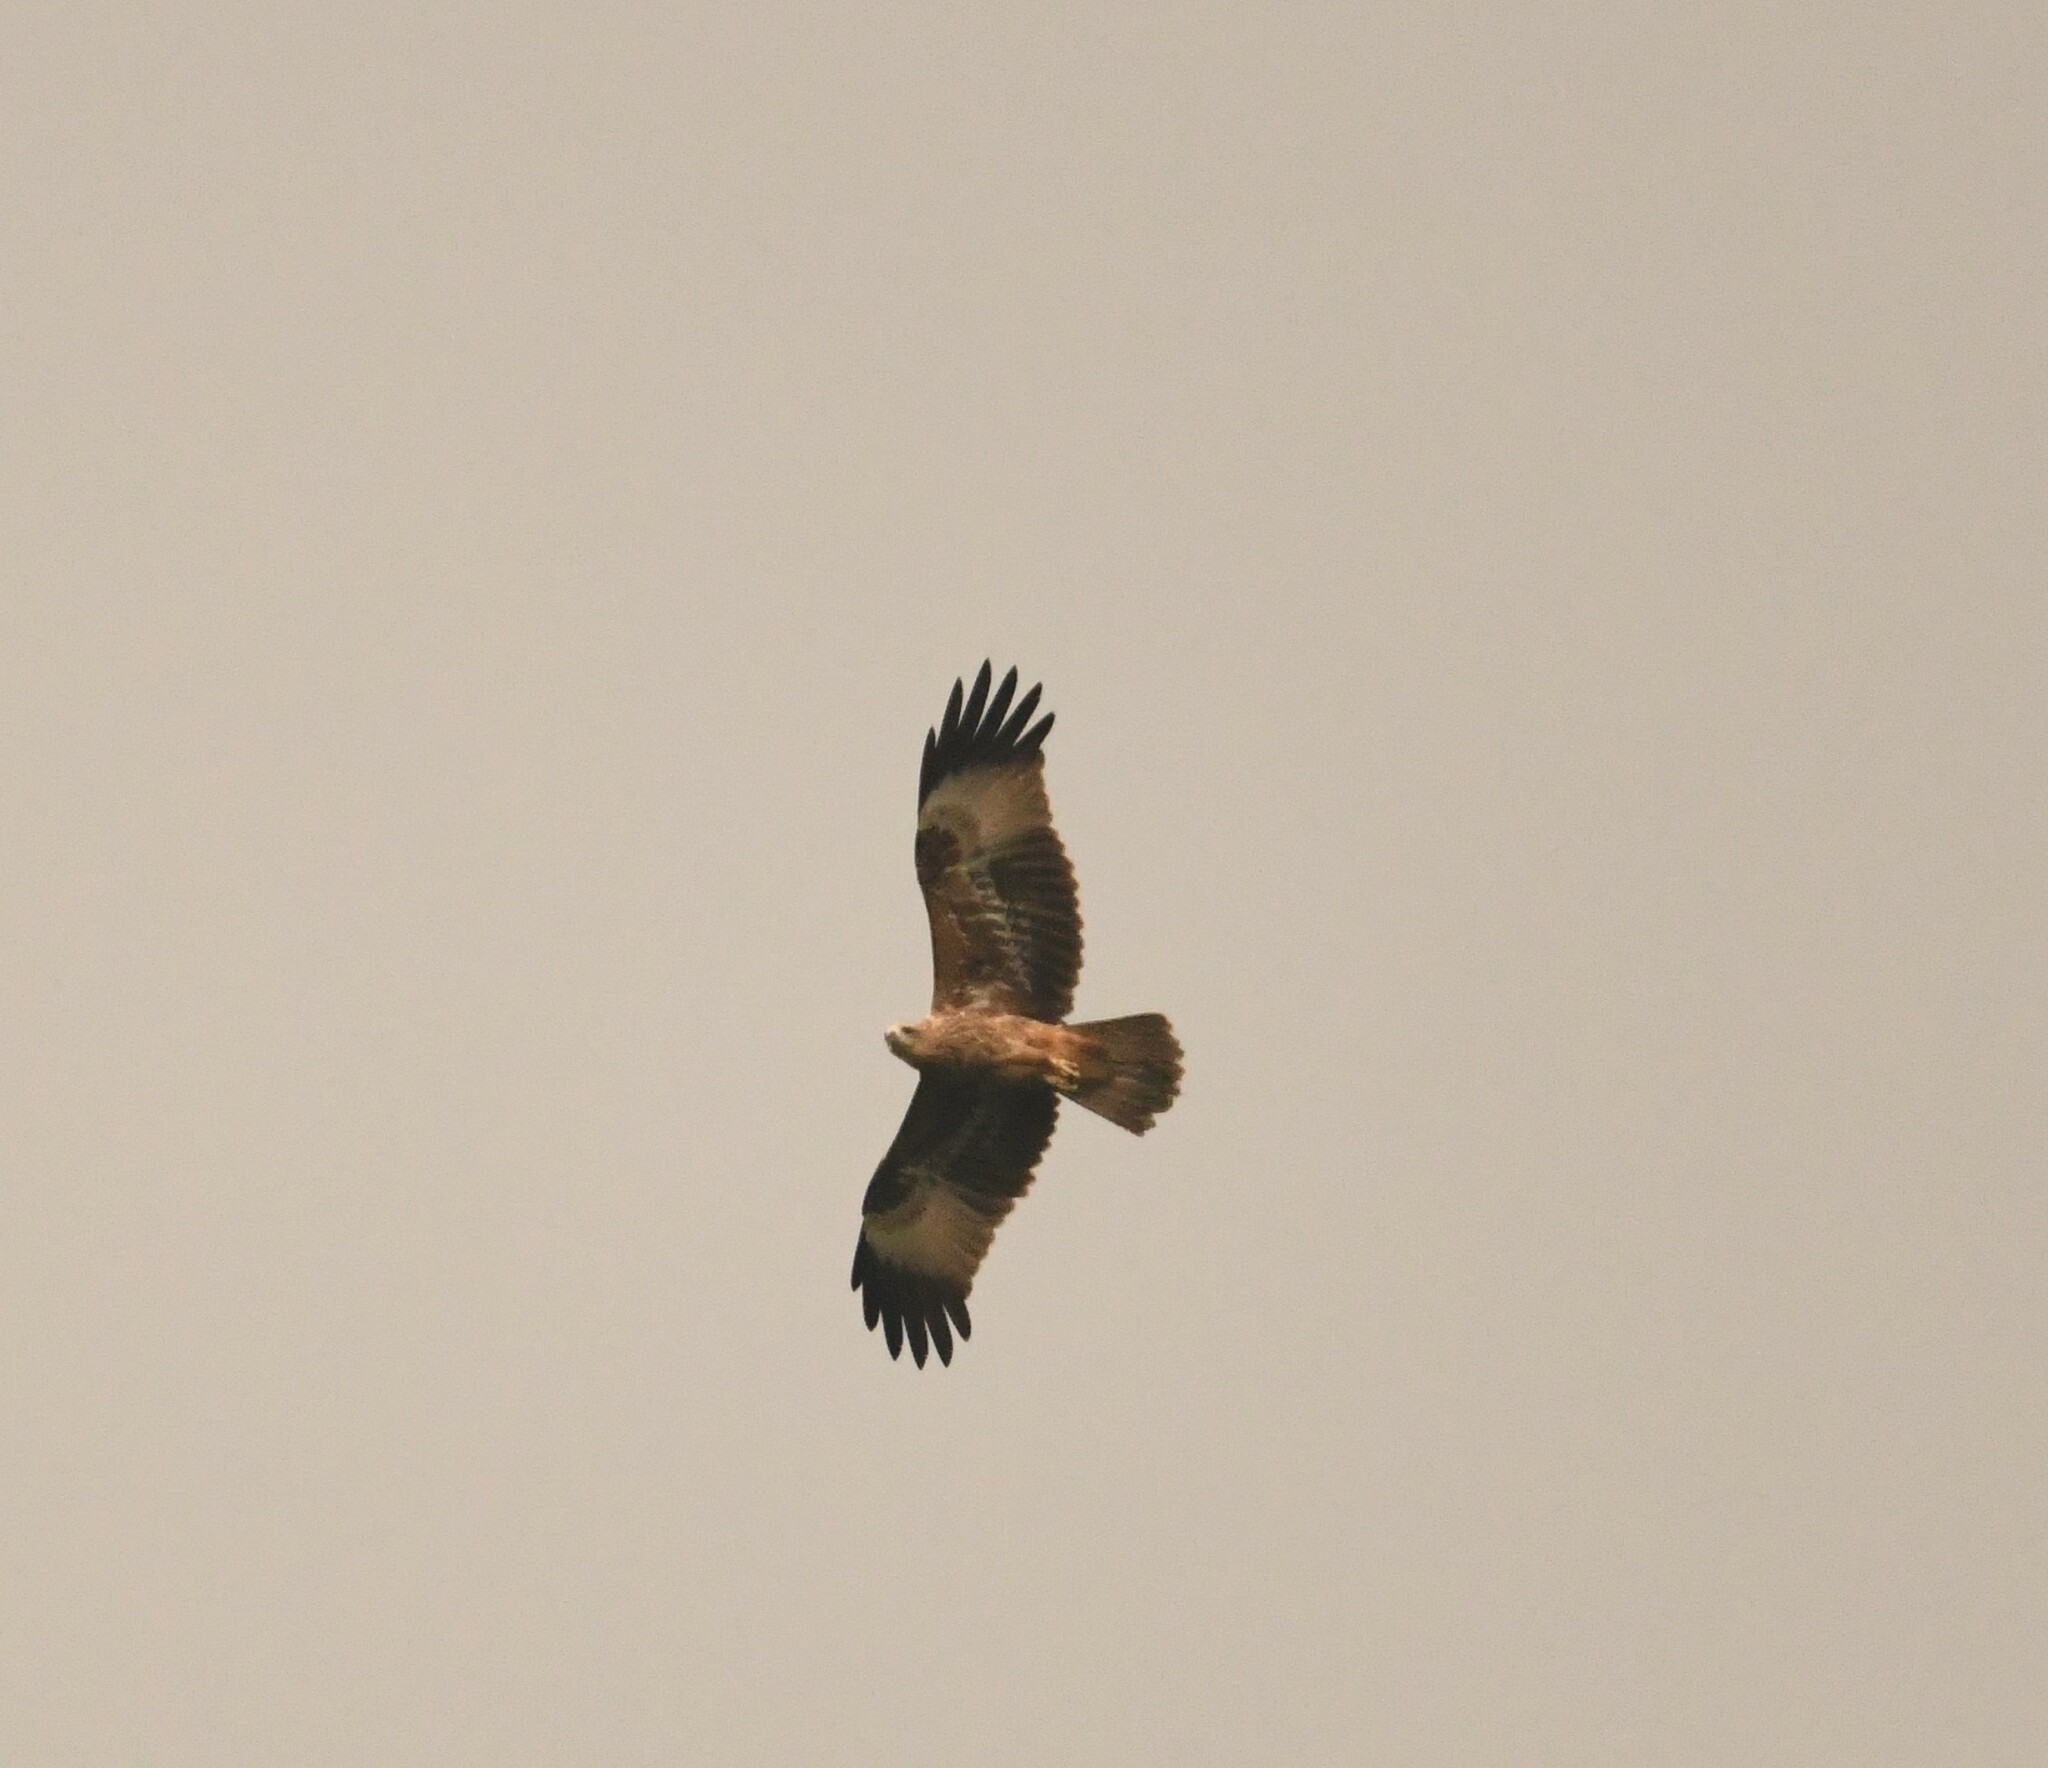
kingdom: Animalia
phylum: Chordata
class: Aves
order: Accipitriformes
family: Accipitridae
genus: Haliastur
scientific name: Haliastur indus
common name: Brahminy kite
